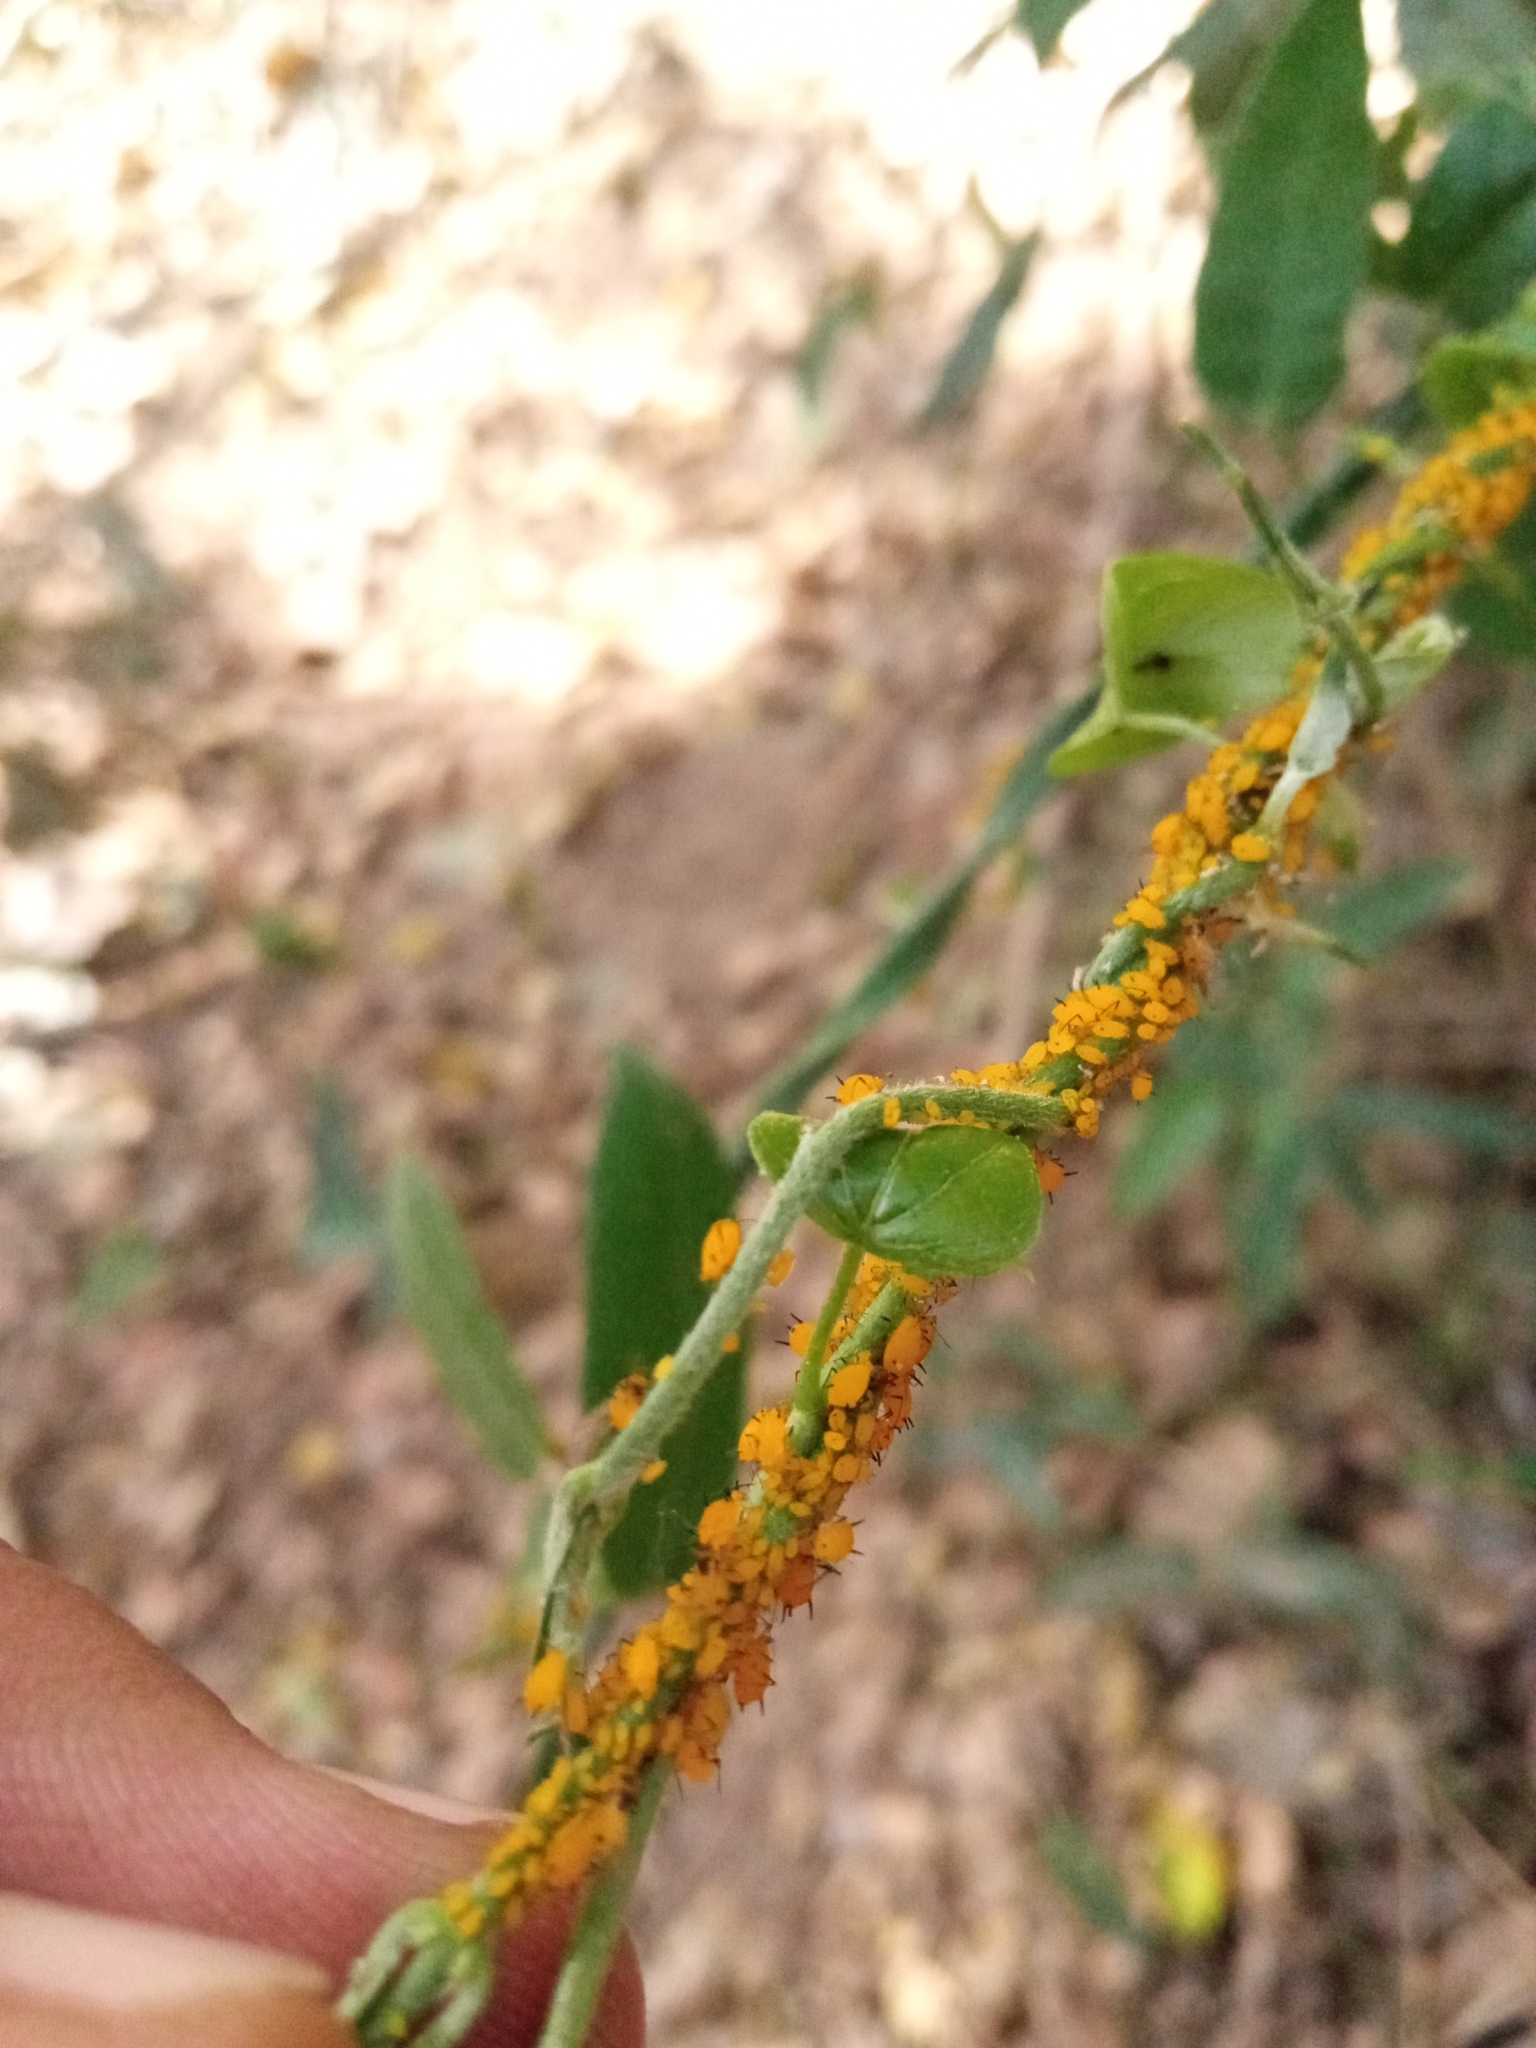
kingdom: Animalia
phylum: Arthropoda
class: Insecta
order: Hemiptera
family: Aphididae
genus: Aphis
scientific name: Aphis nerii
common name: Oleander aphid
